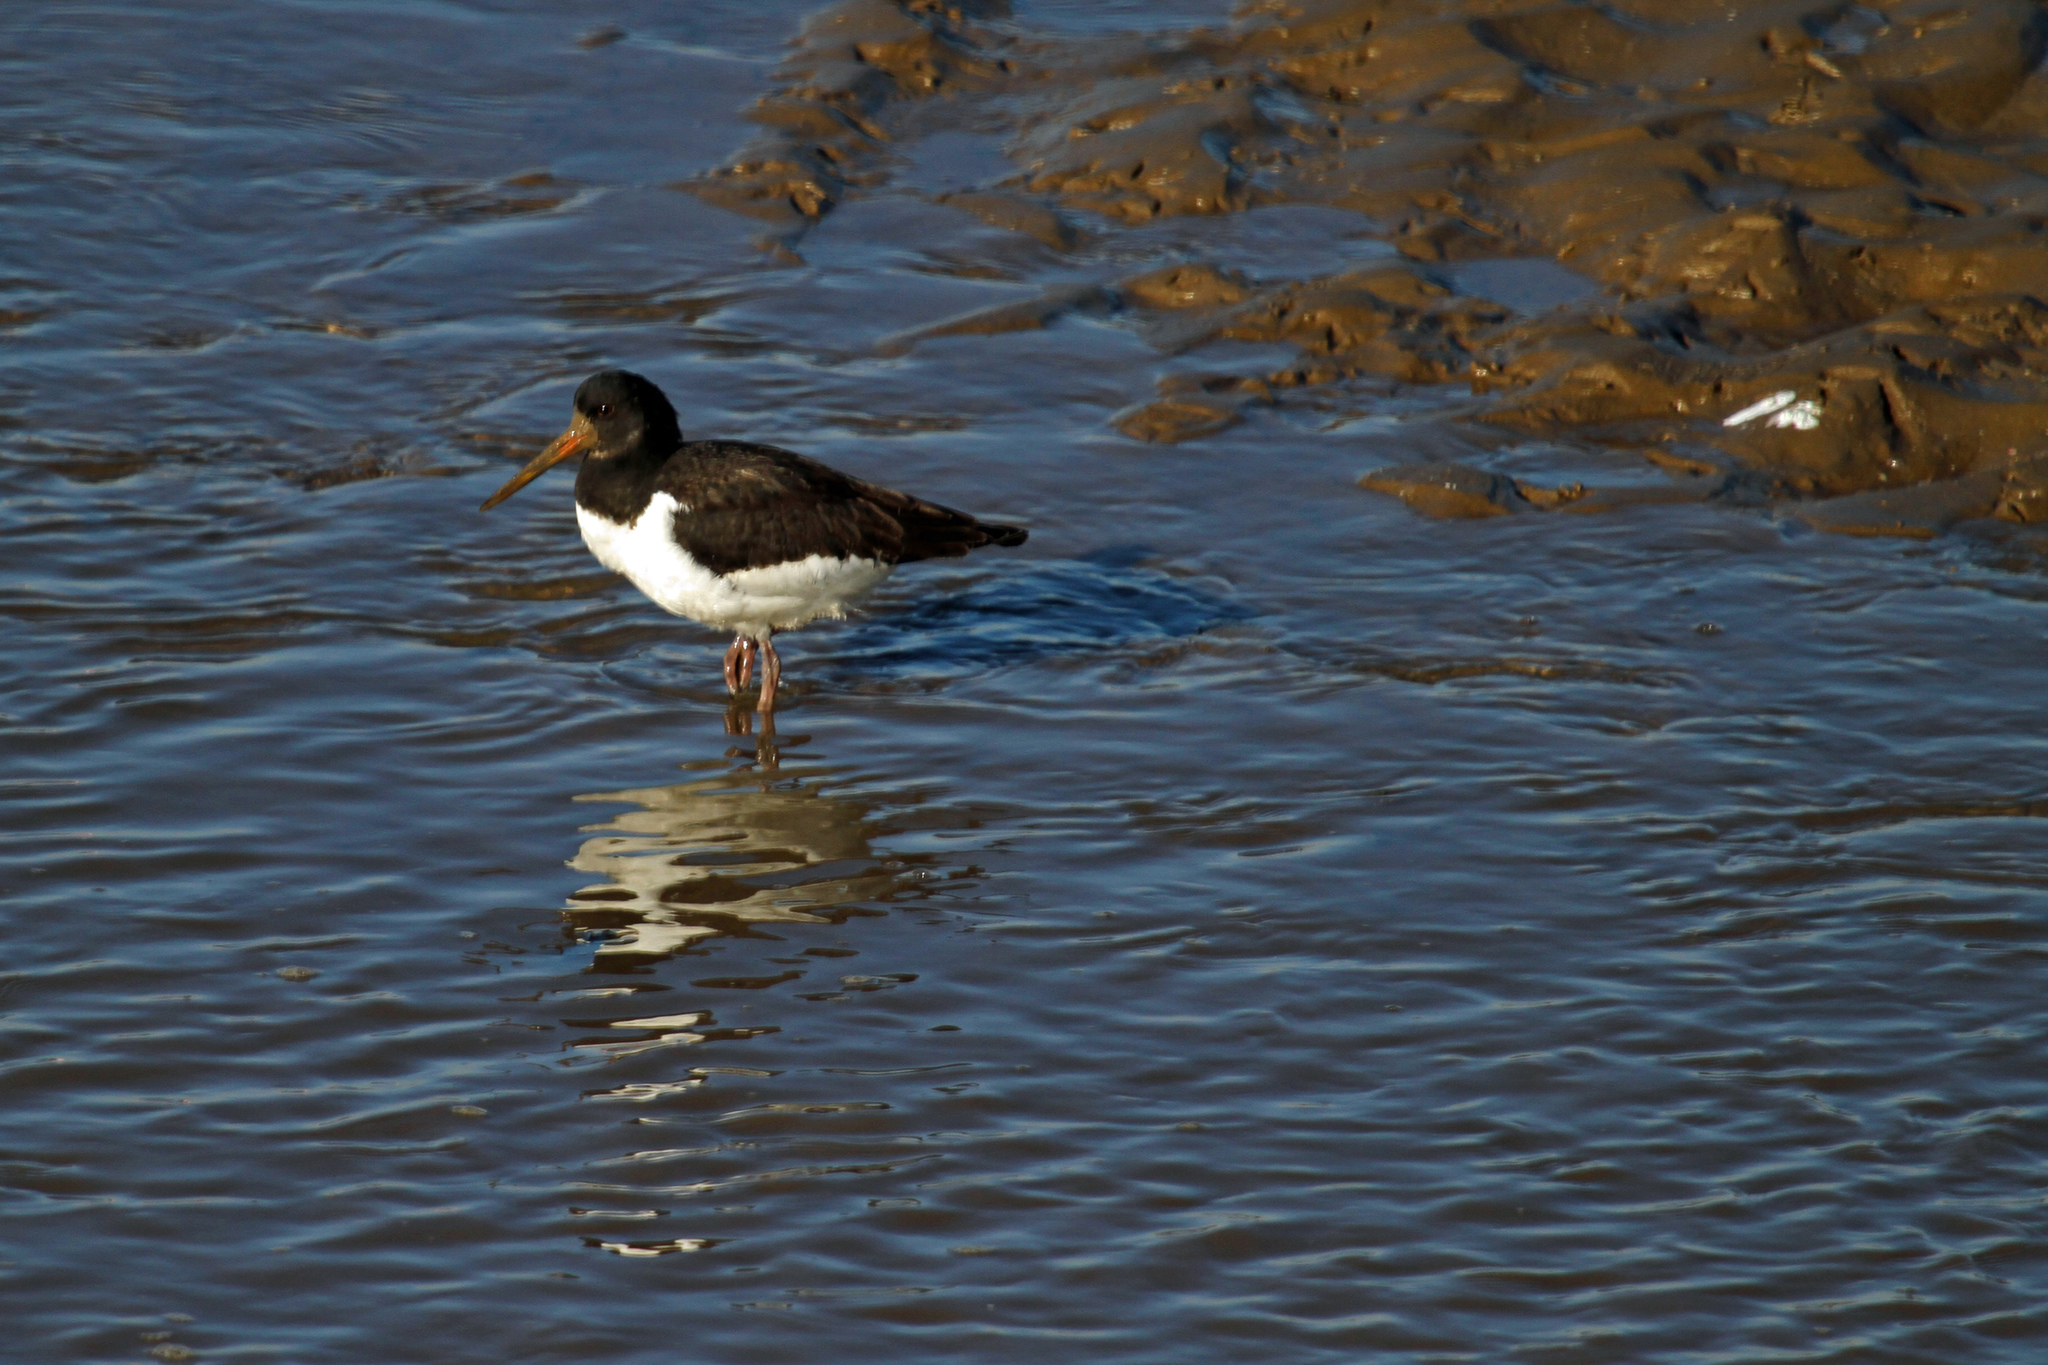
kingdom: Animalia
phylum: Chordata
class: Aves
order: Charadriiformes
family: Haematopodidae
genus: Haematopus
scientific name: Haematopus ostralegus
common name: Eurasian oystercatcher
